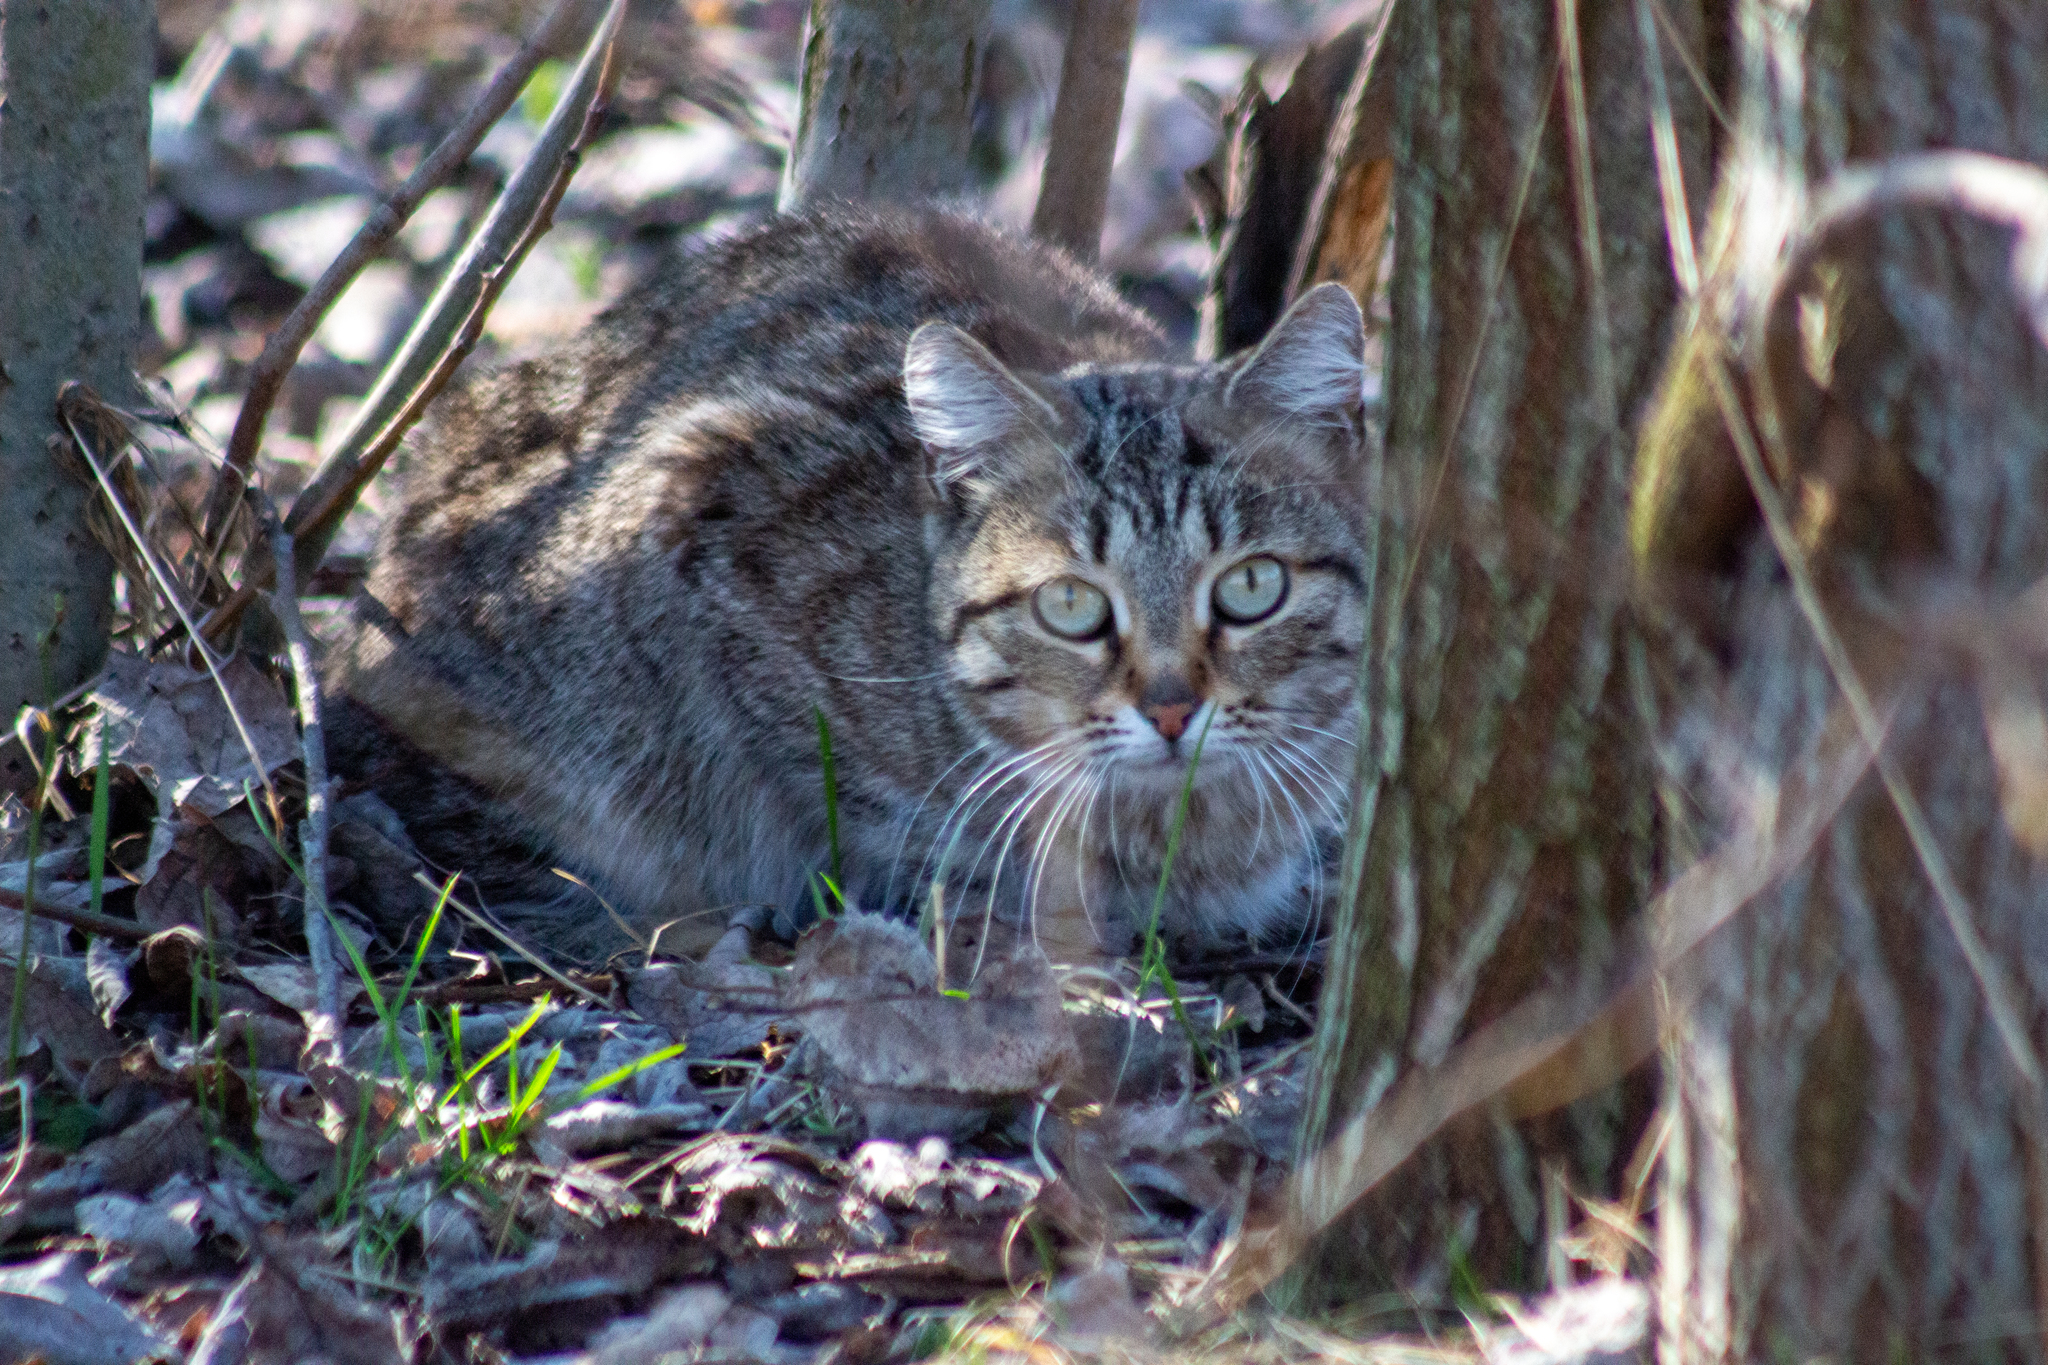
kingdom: Animalia
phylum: Chordata
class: Mammalia
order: Carnivora
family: Felidae
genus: Felis
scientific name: Felis catus
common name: Domestic cat
